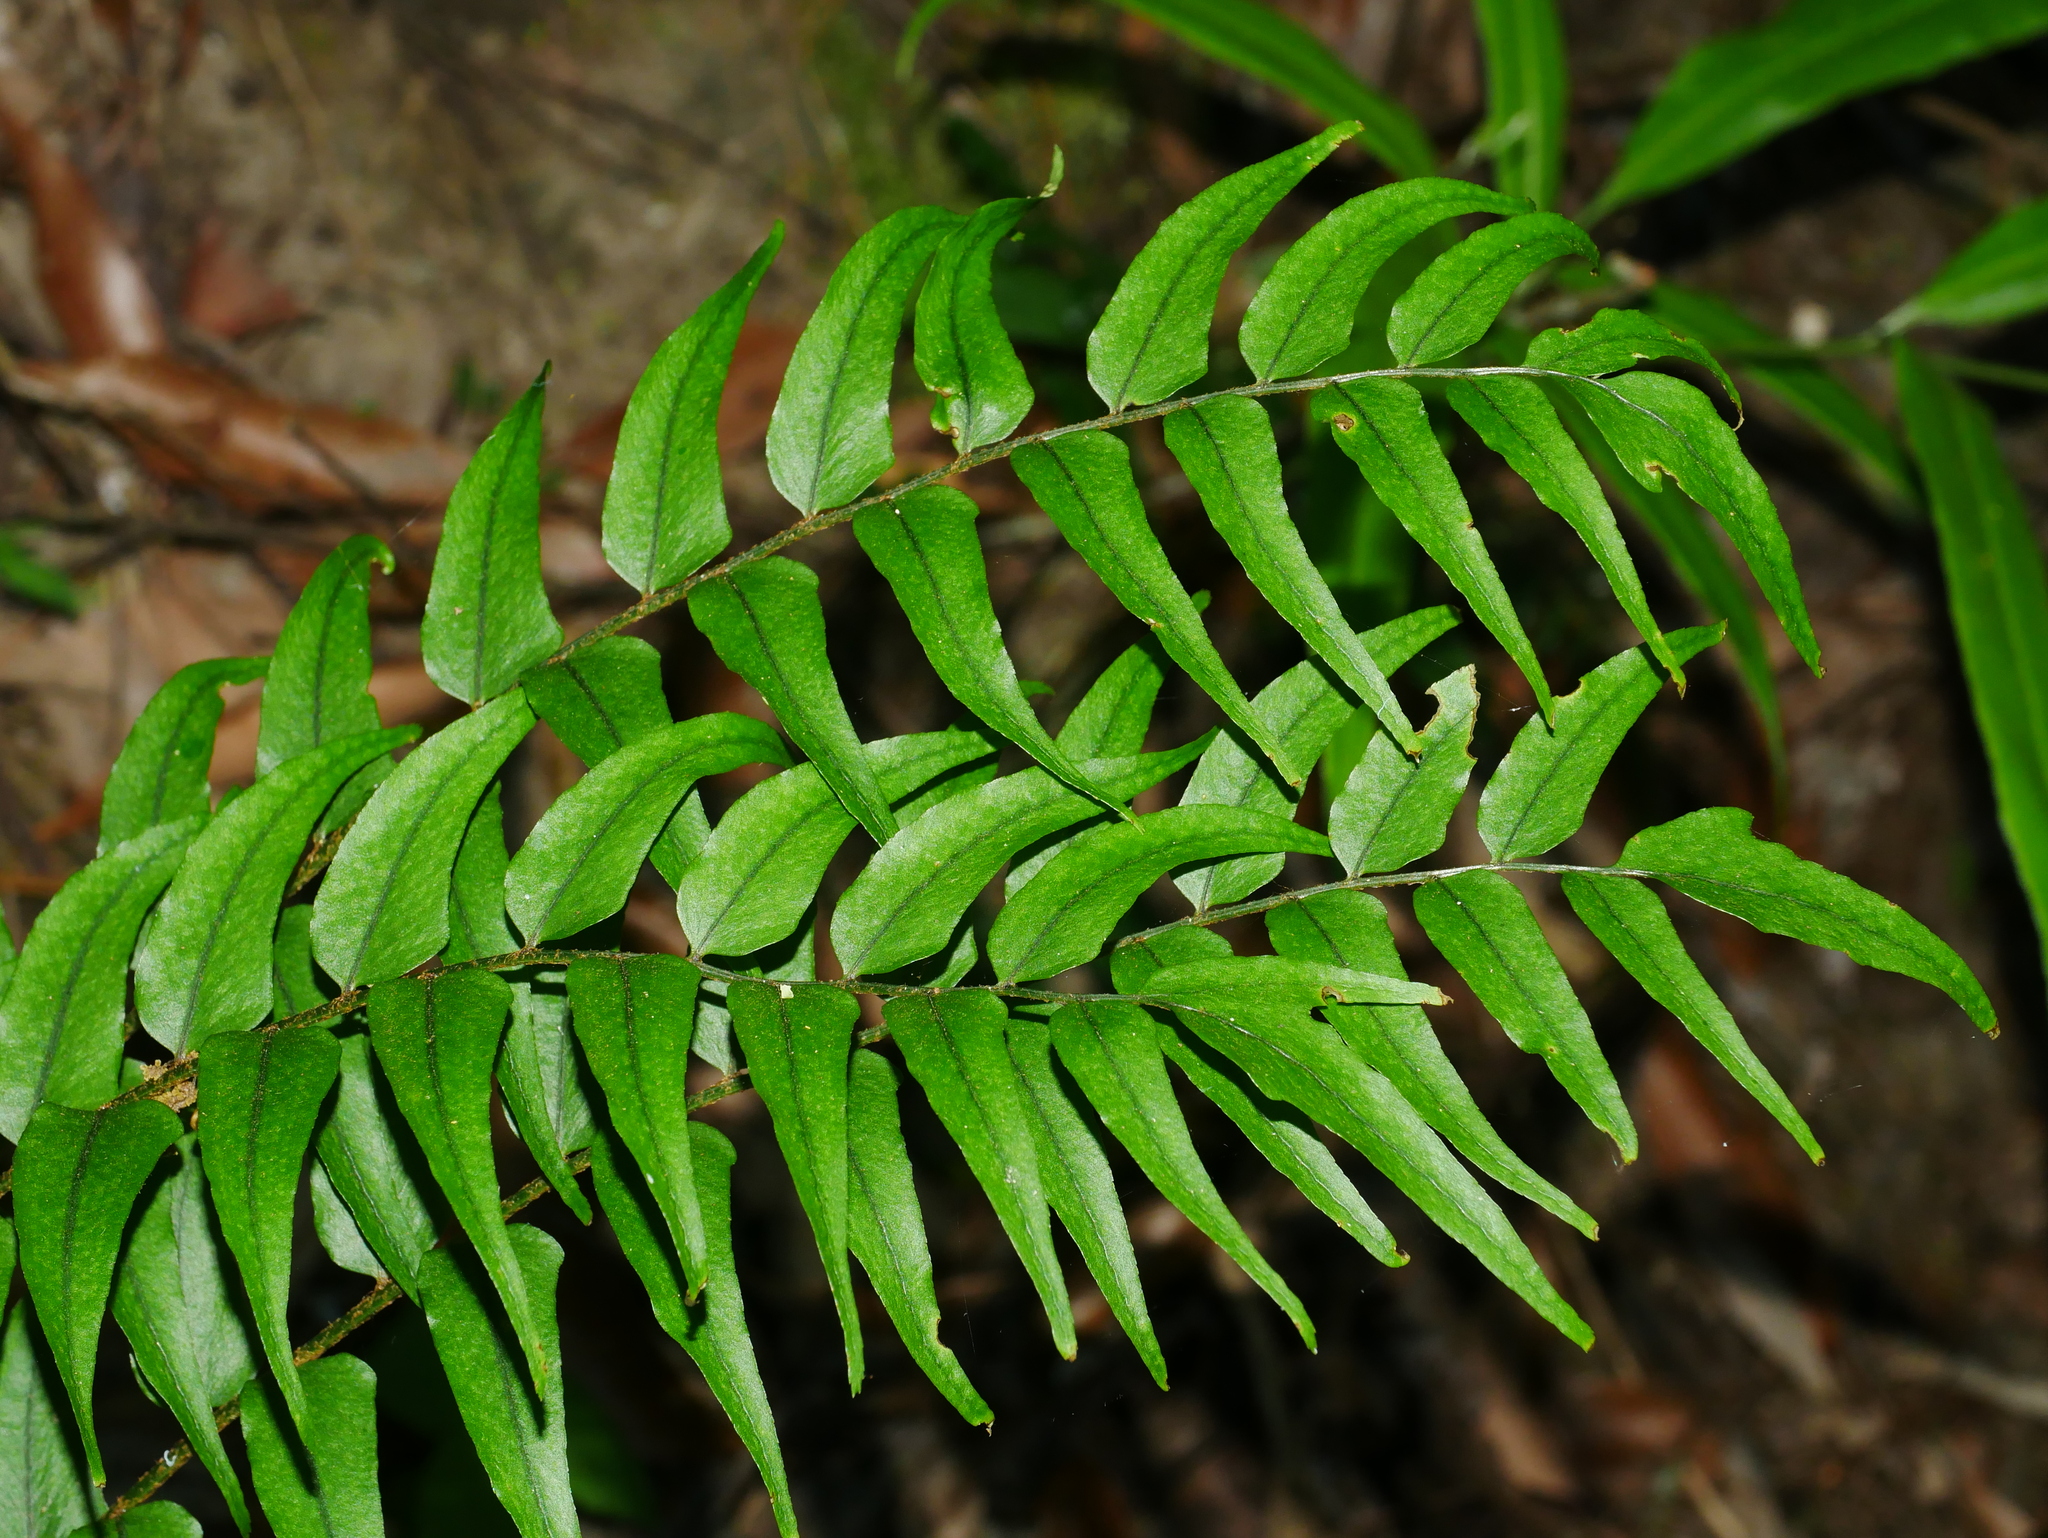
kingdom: Plantae
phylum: Tracheophyta
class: Polypodiopsida
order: Polypodiales
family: Dryopteridaceae
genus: Cyrtomium
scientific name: Cyrtomium fortunei
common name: Asian netvein hollyfern
